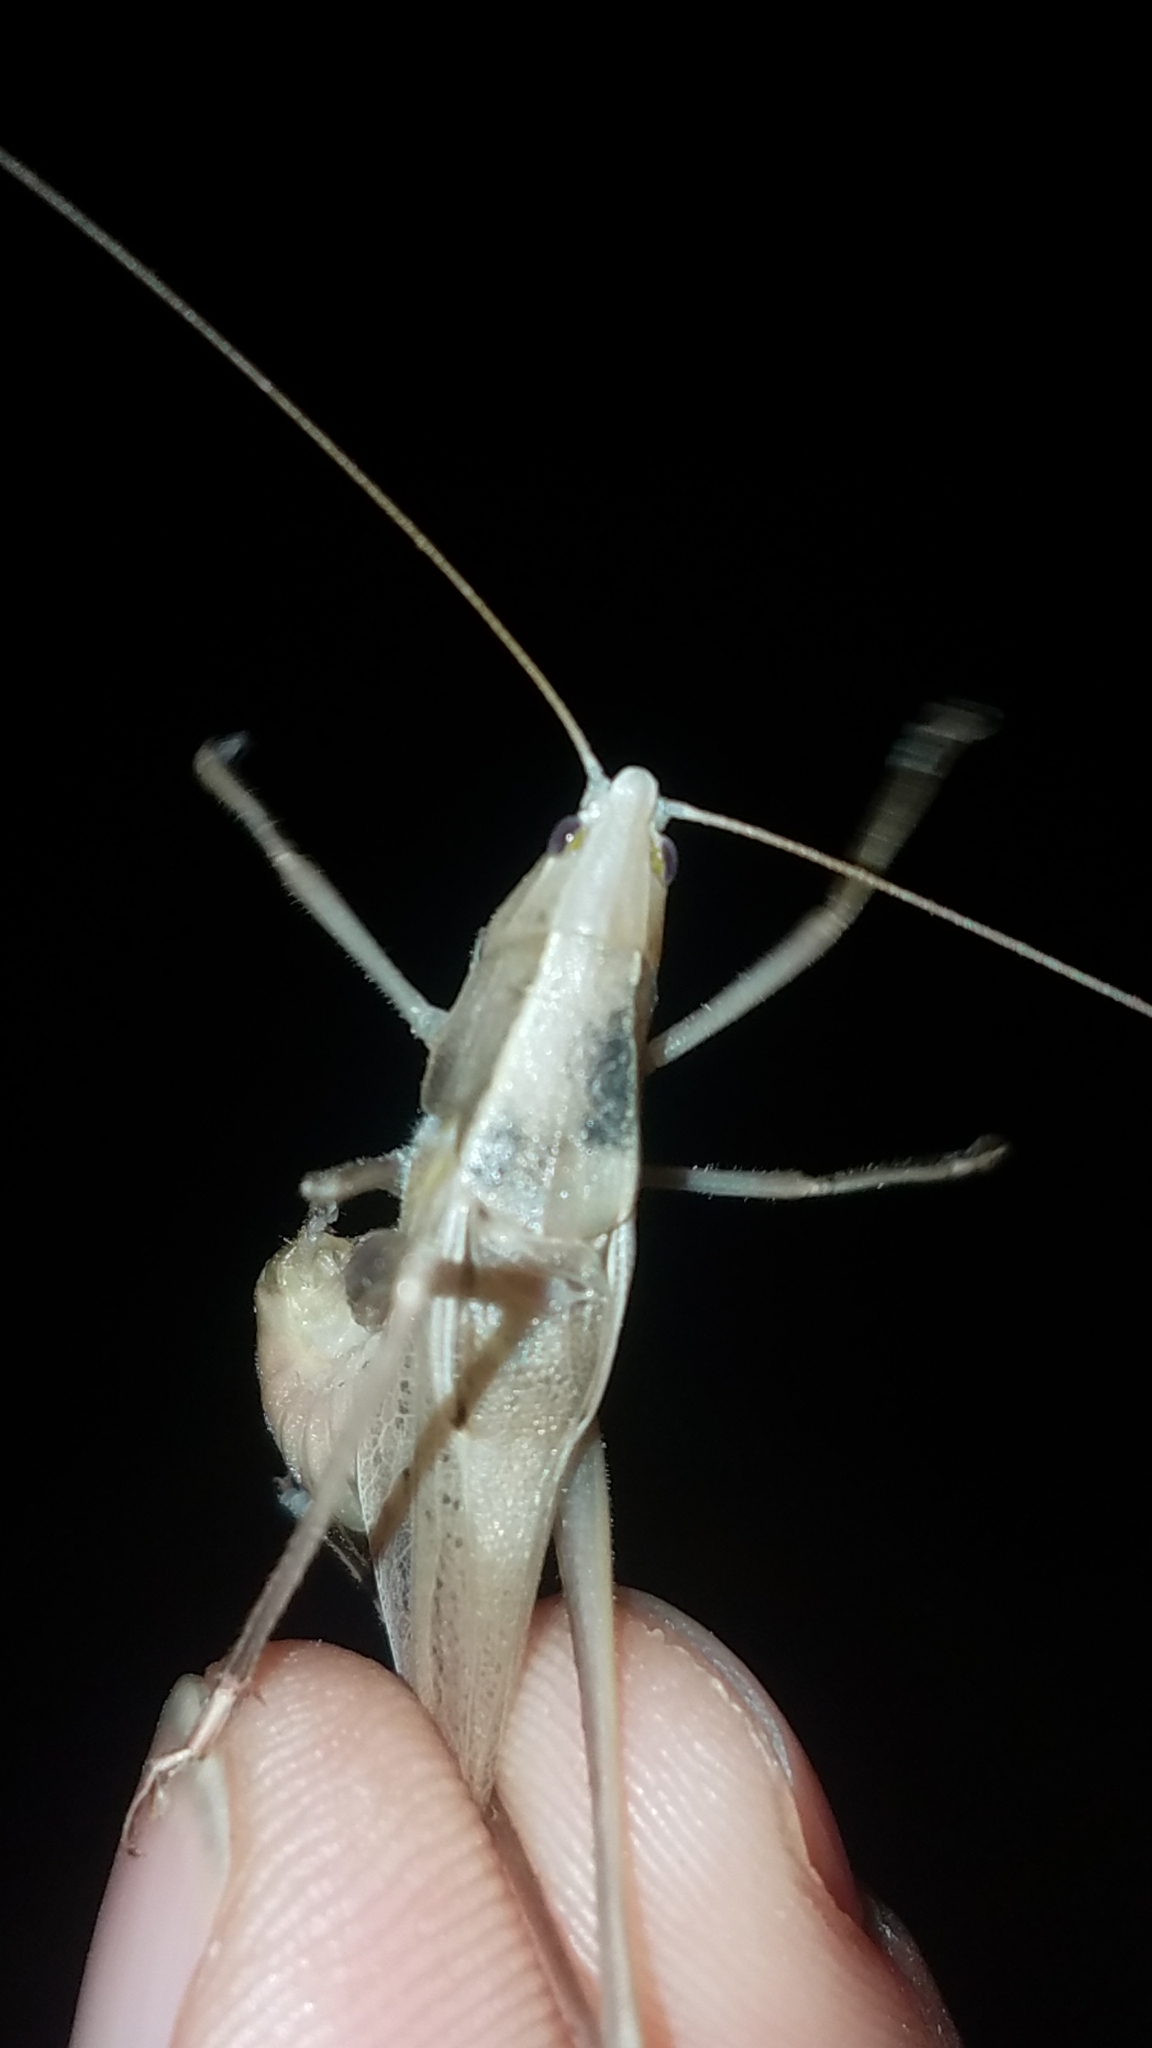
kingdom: Animalia
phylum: Arthropoda
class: Insecta
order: Orthoptera
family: Tettigoniidae
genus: Neoconocephalus
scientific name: Neoconocephalus retusus
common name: Round-tipped conehead
